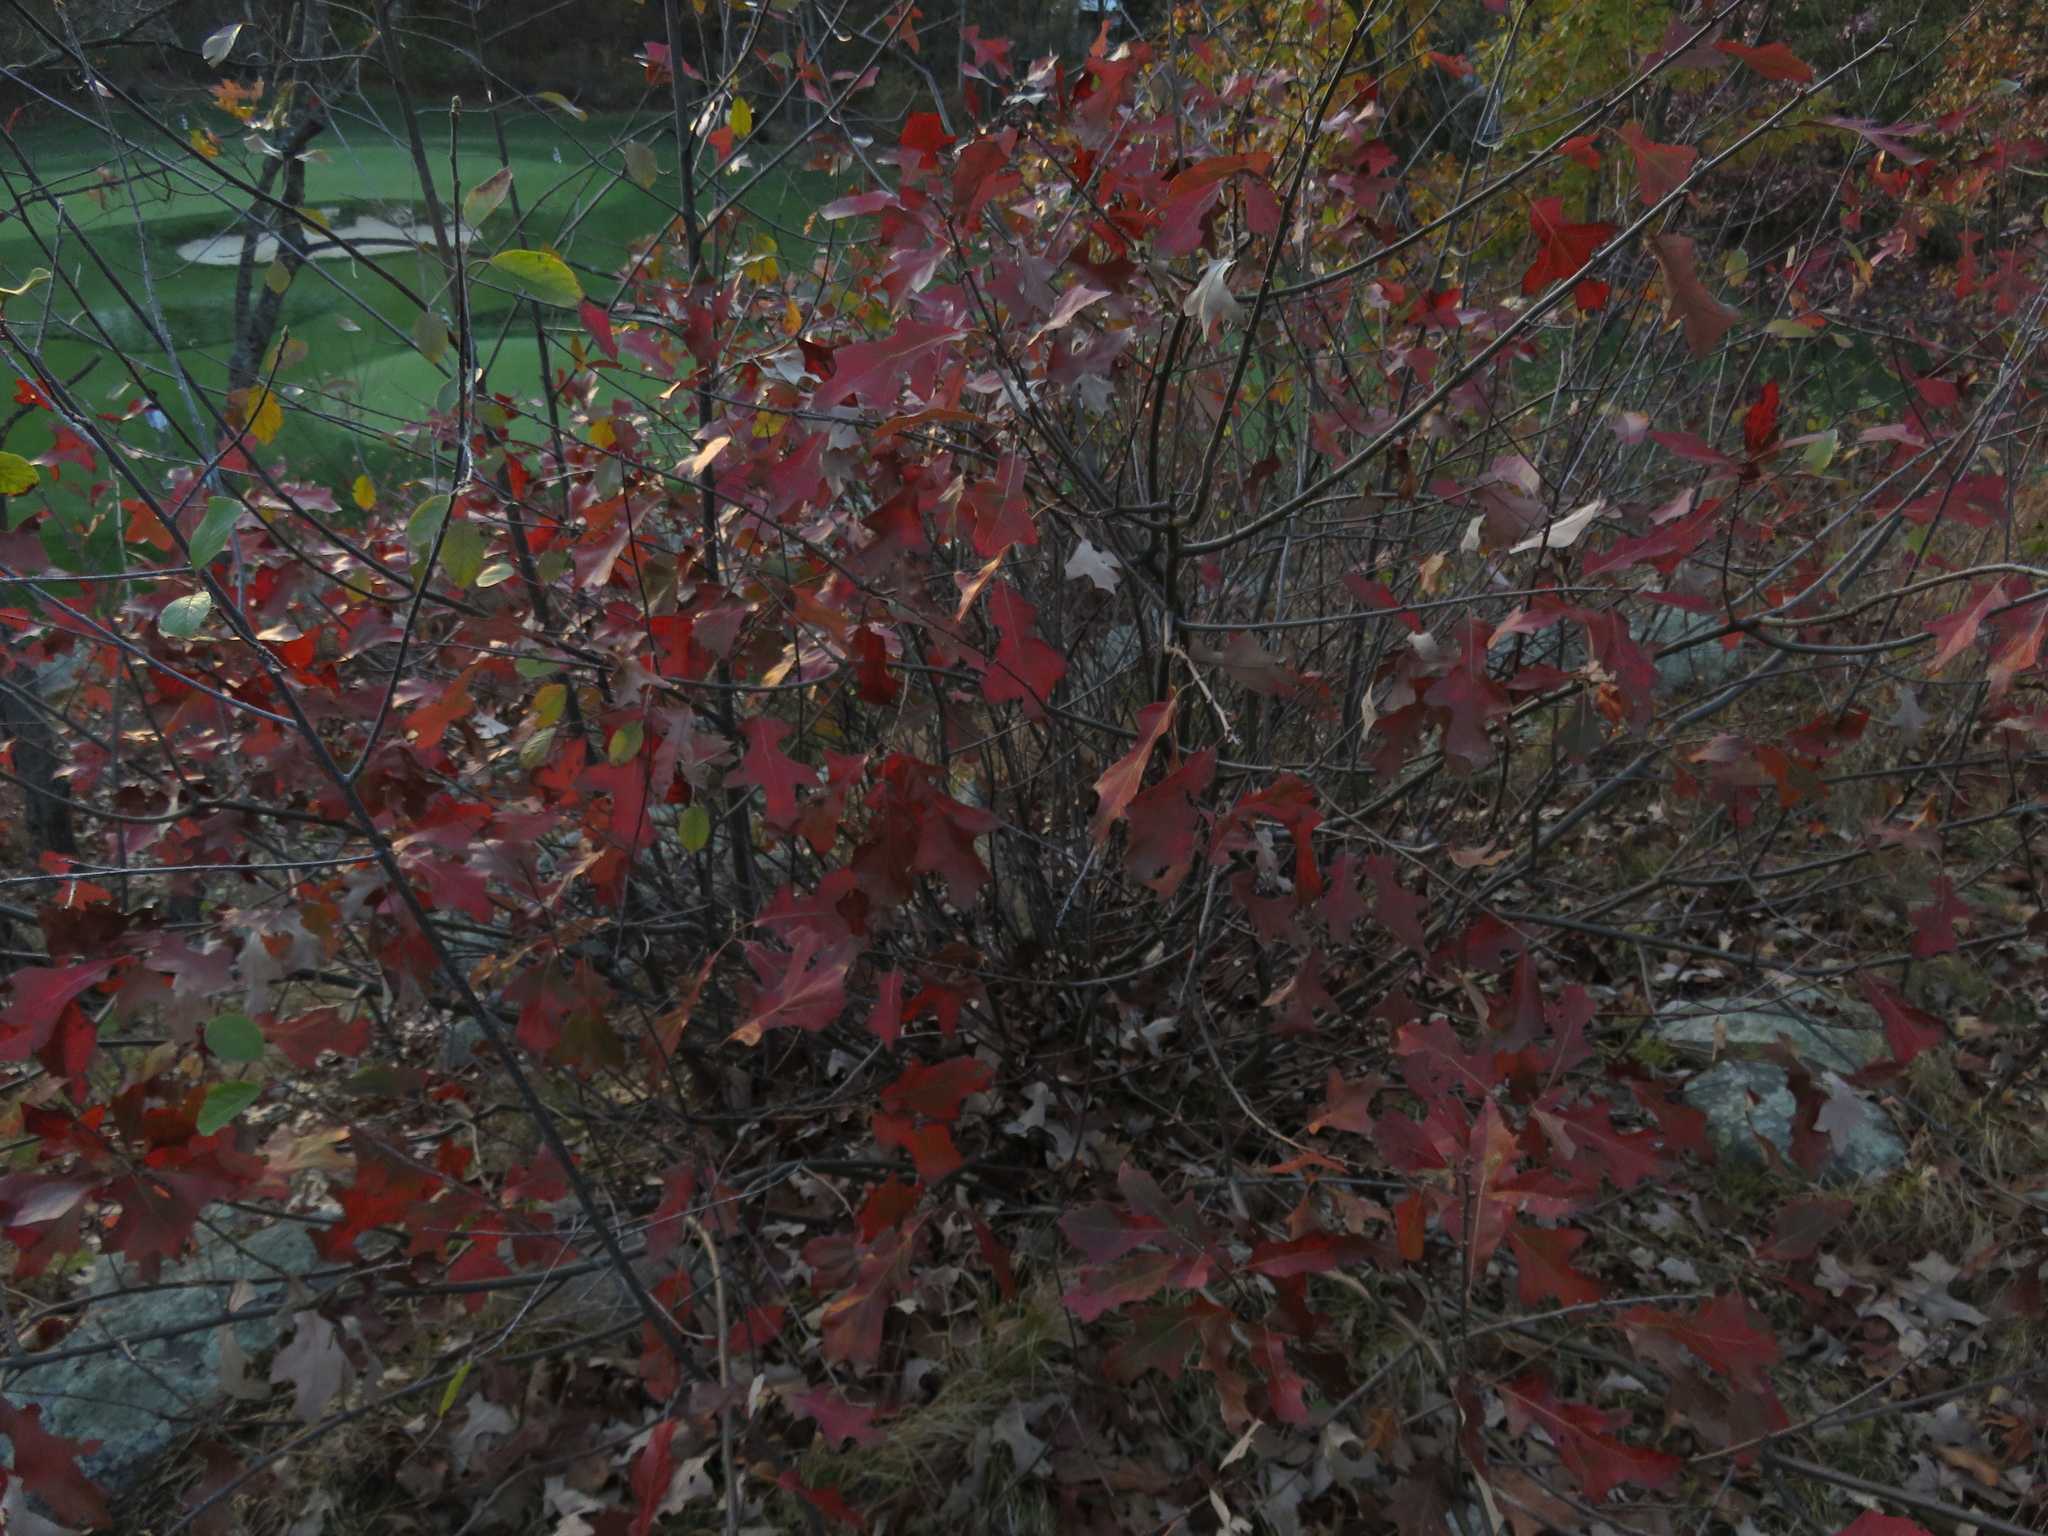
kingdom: Plantae
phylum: Tracheophyta
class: Magnoliopsida
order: Fagales
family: Fagaceae
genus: Quercus
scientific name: Quercus ilicifolia
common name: Bear oak
